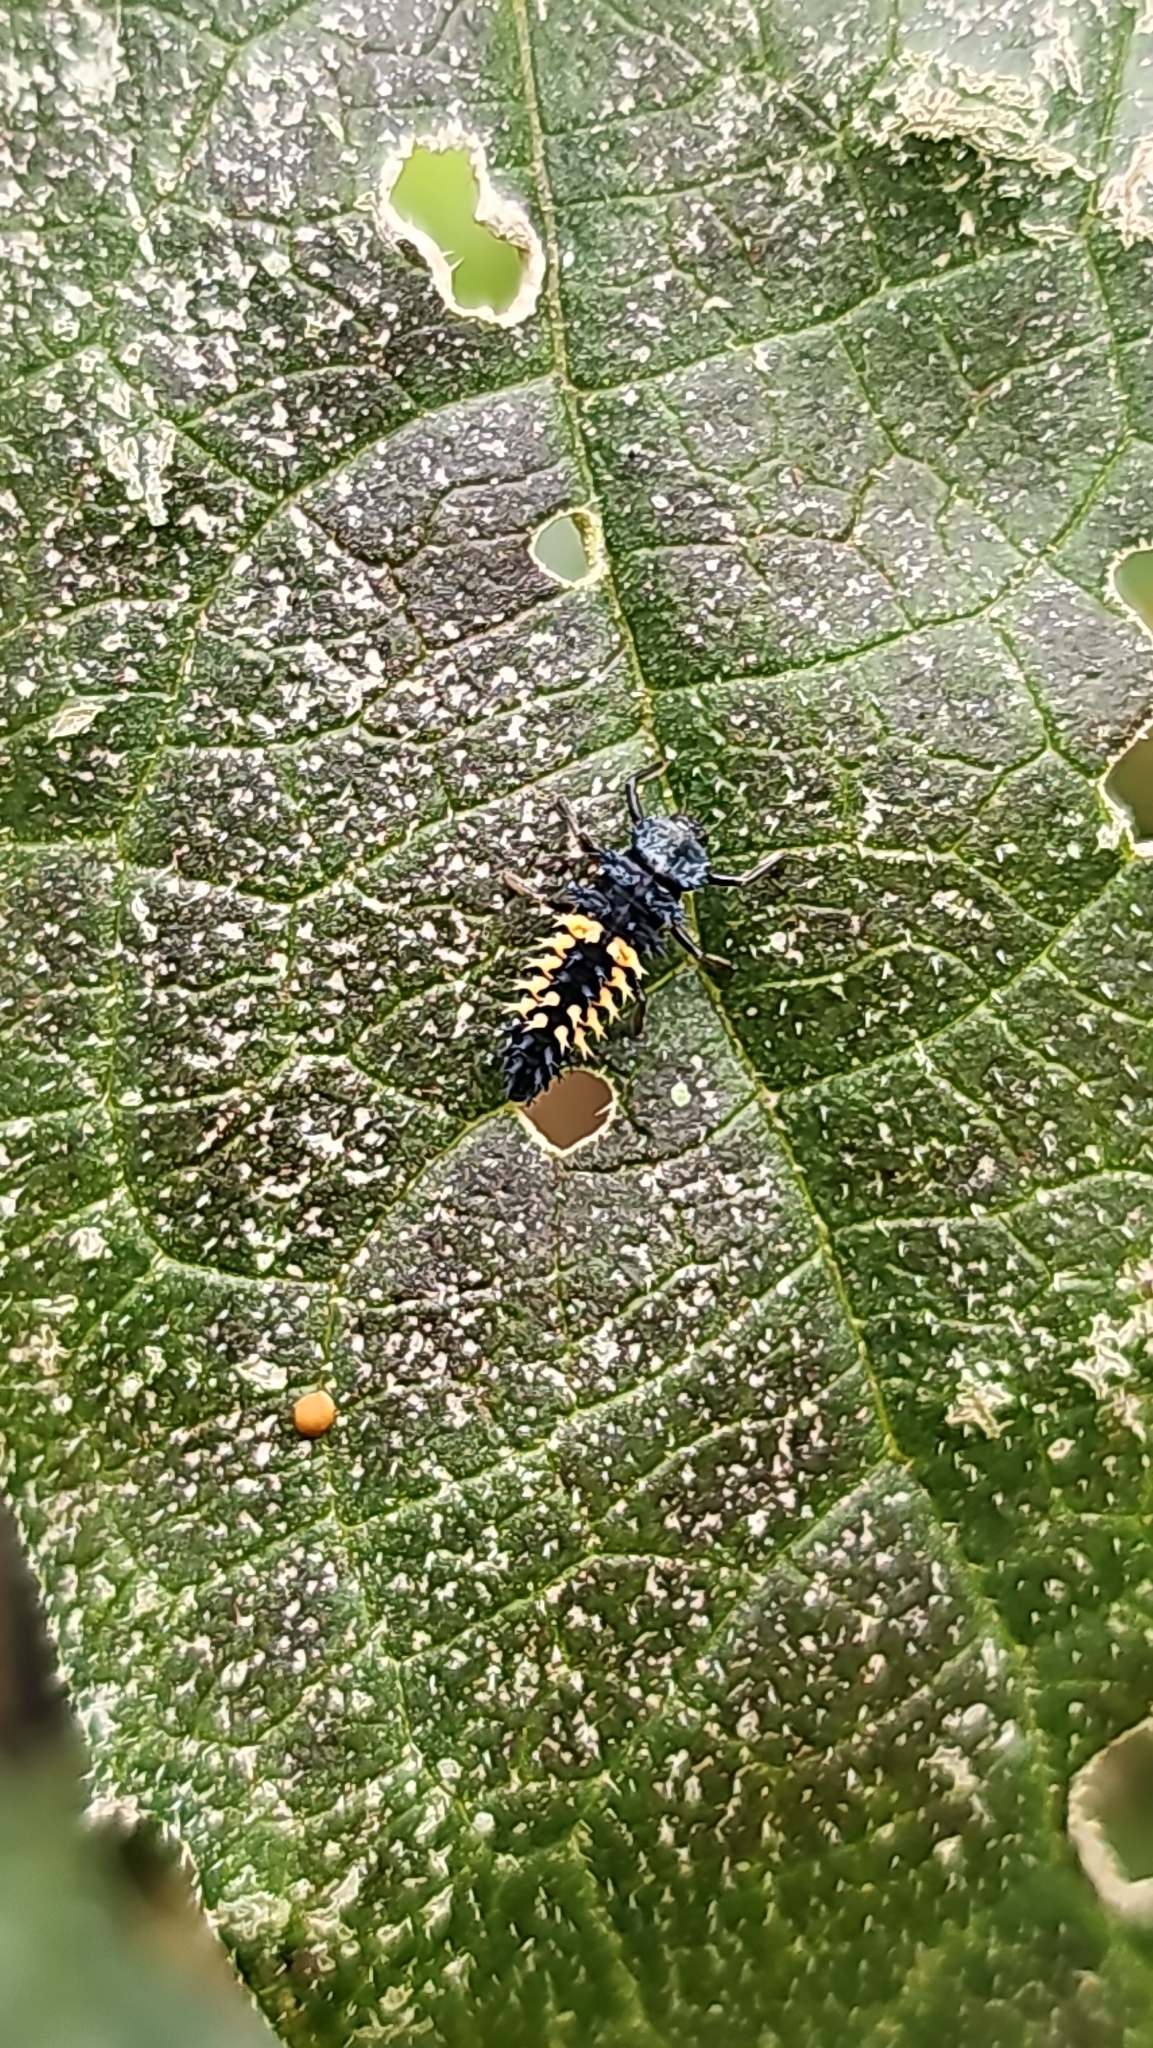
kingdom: Animalia
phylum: Arthropoda
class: Insecta
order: Coleoptera
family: Coccinellidae
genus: Harmonia
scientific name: Harmonia axyridis
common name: Harlequin ladybird
